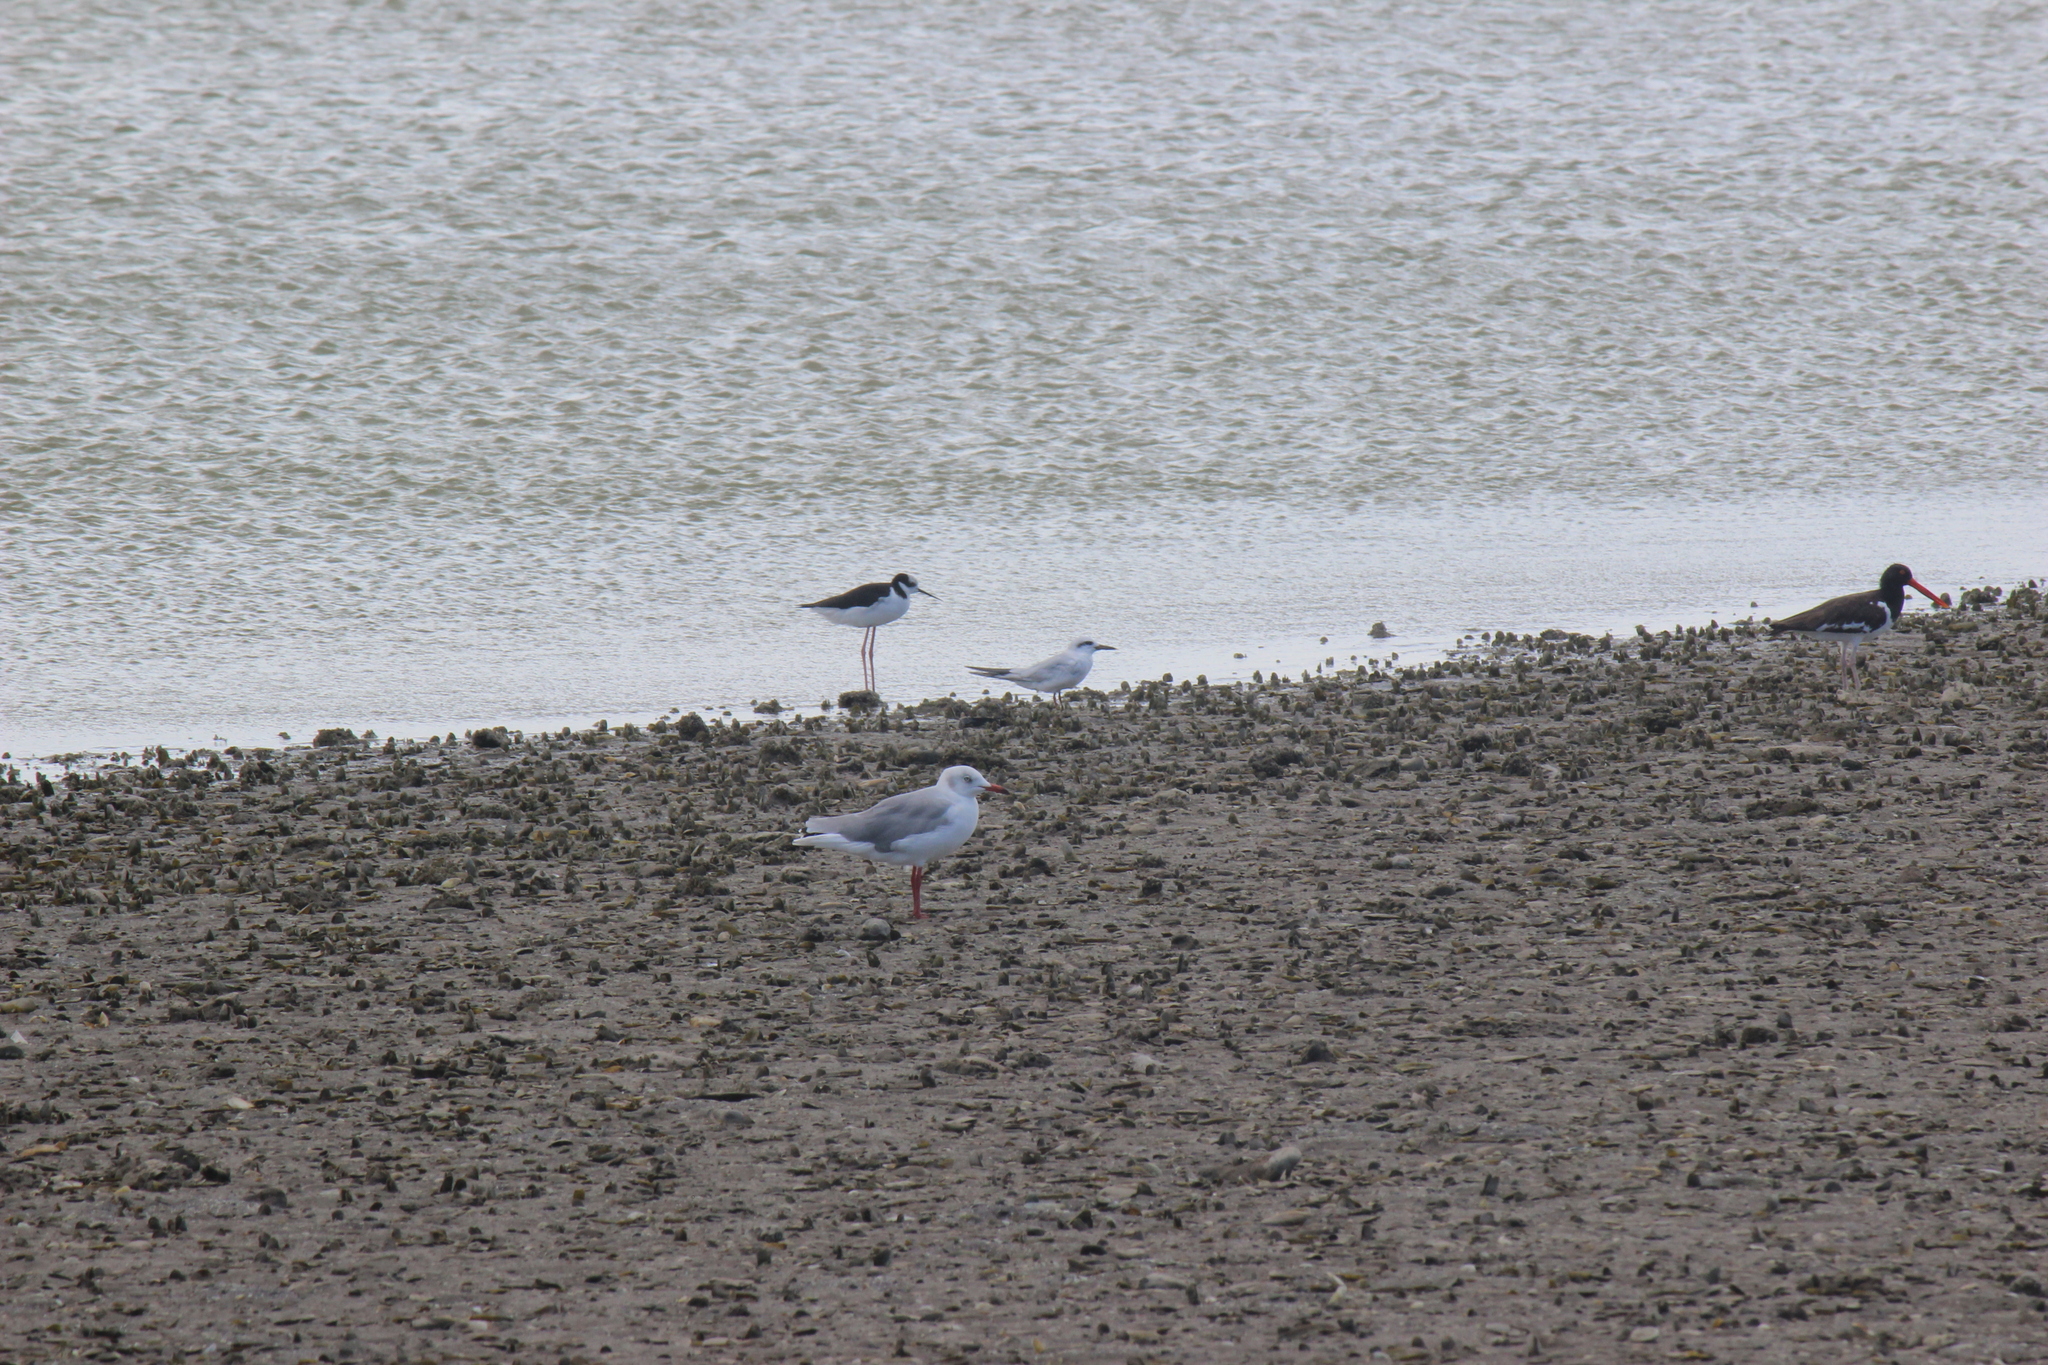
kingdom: Animalia
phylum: Chordata
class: Aves
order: Charadriiformes
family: Laridae
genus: Chroicocephalus
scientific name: Chroicocephalus cirrocephalus
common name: Grey-headed gull
